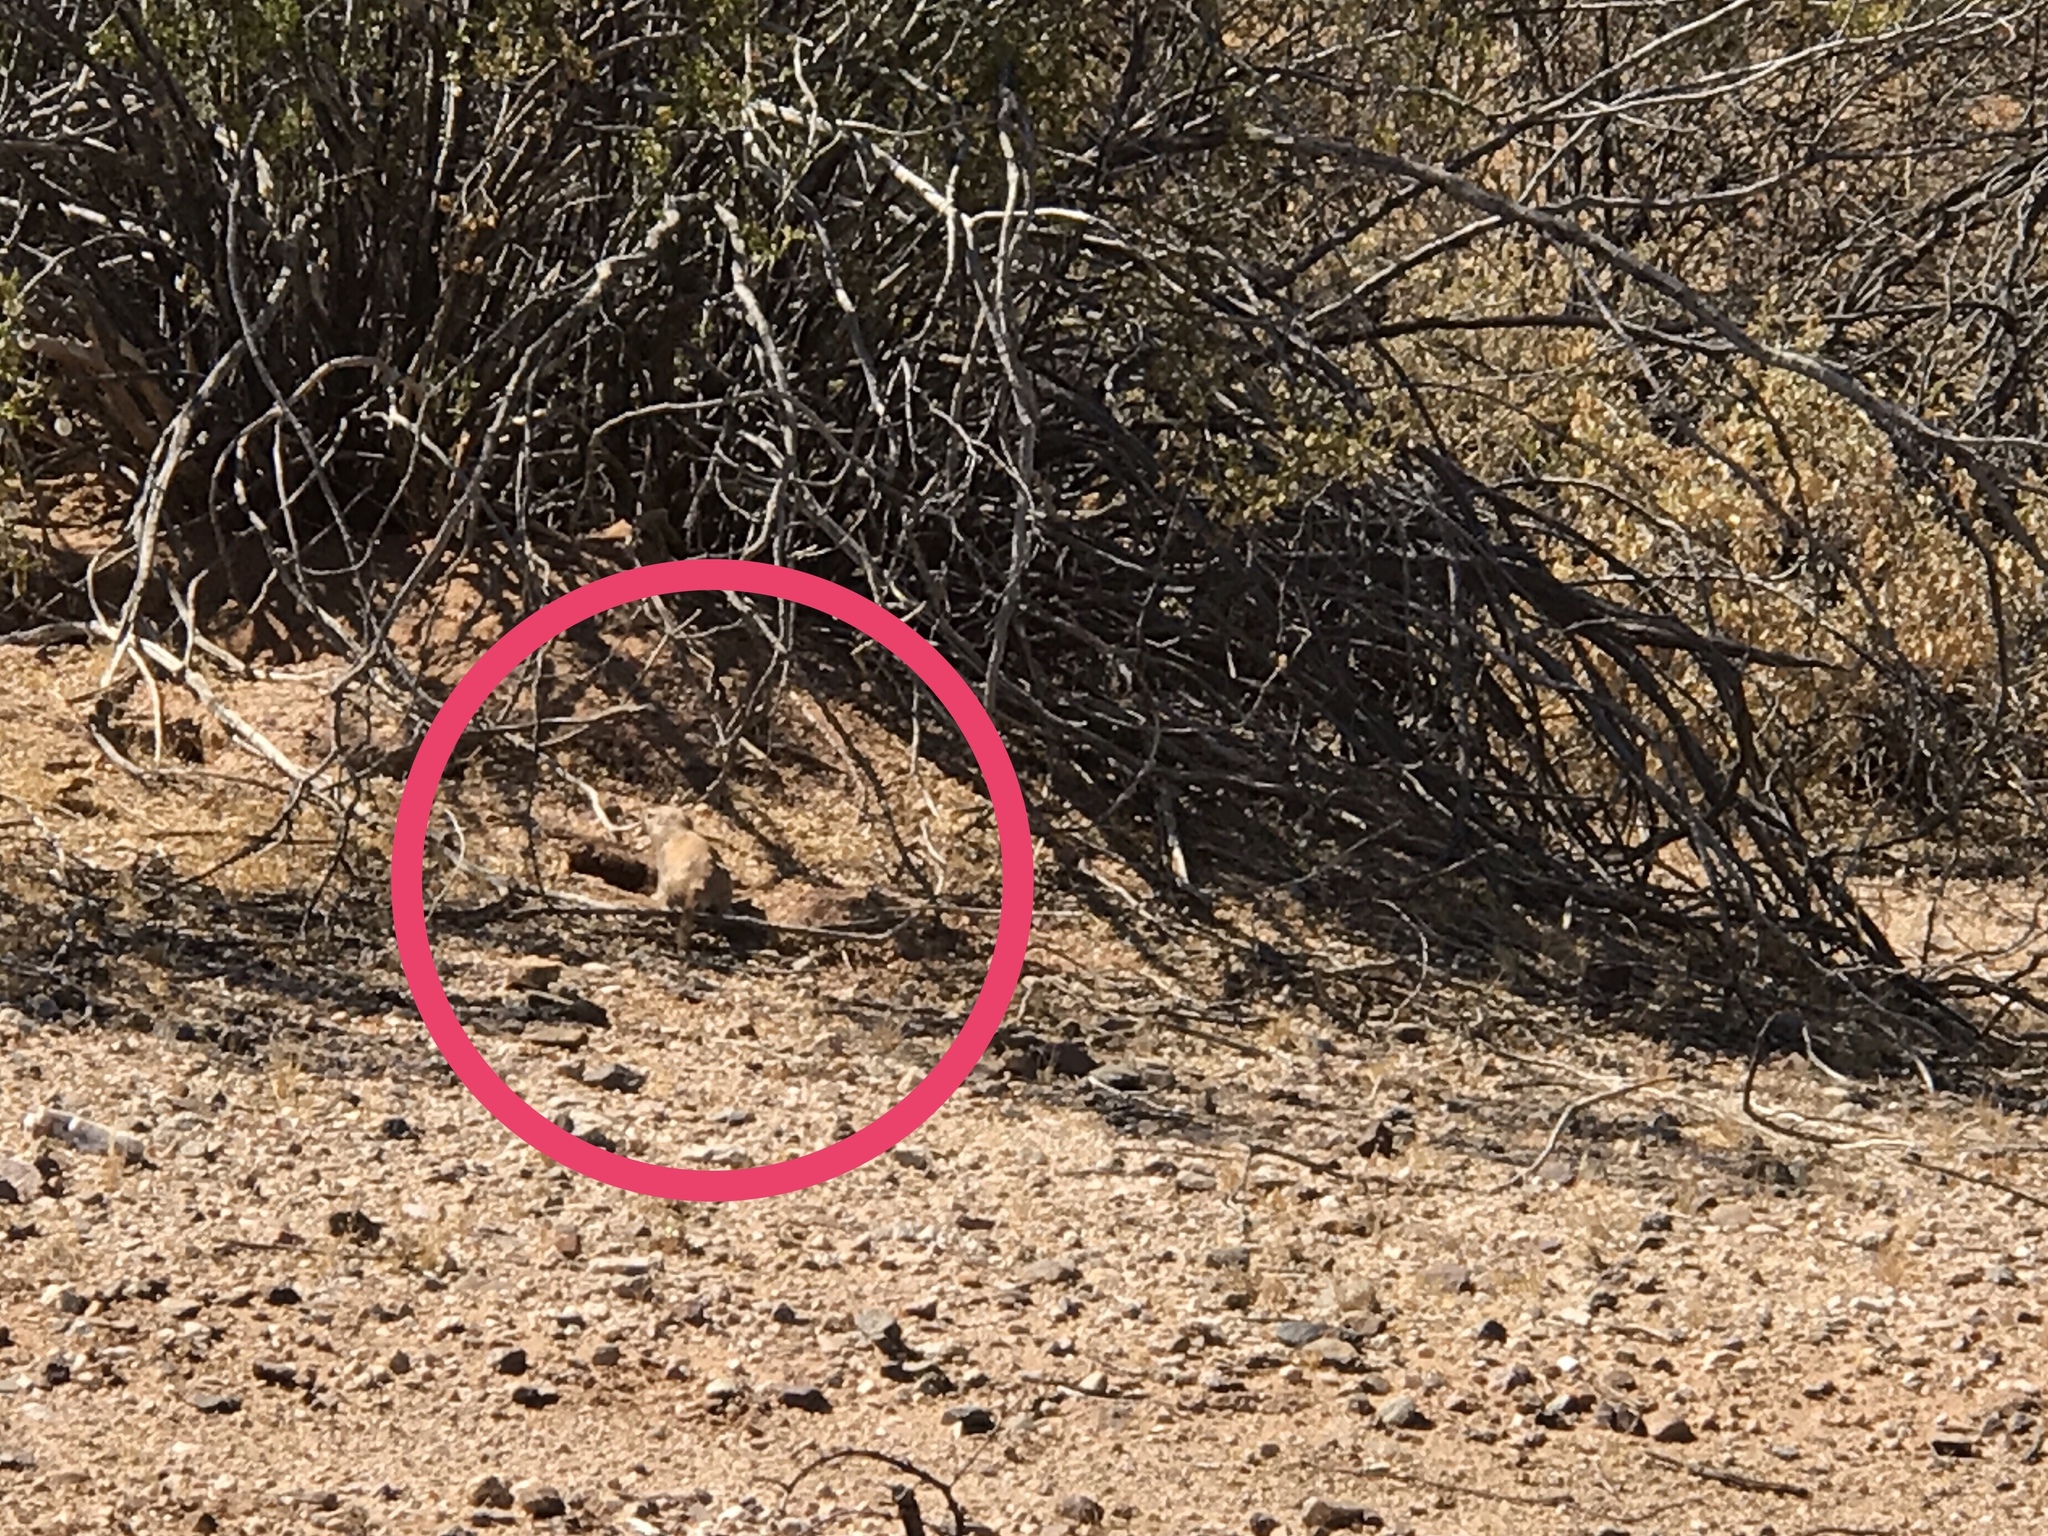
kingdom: Animalia
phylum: Chordata
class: Mammalia
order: Rodentia
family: Sciuridae
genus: Xerospermophilus
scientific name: Xerospermophilus tereticaudus
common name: Round-tailed ground squirrel
